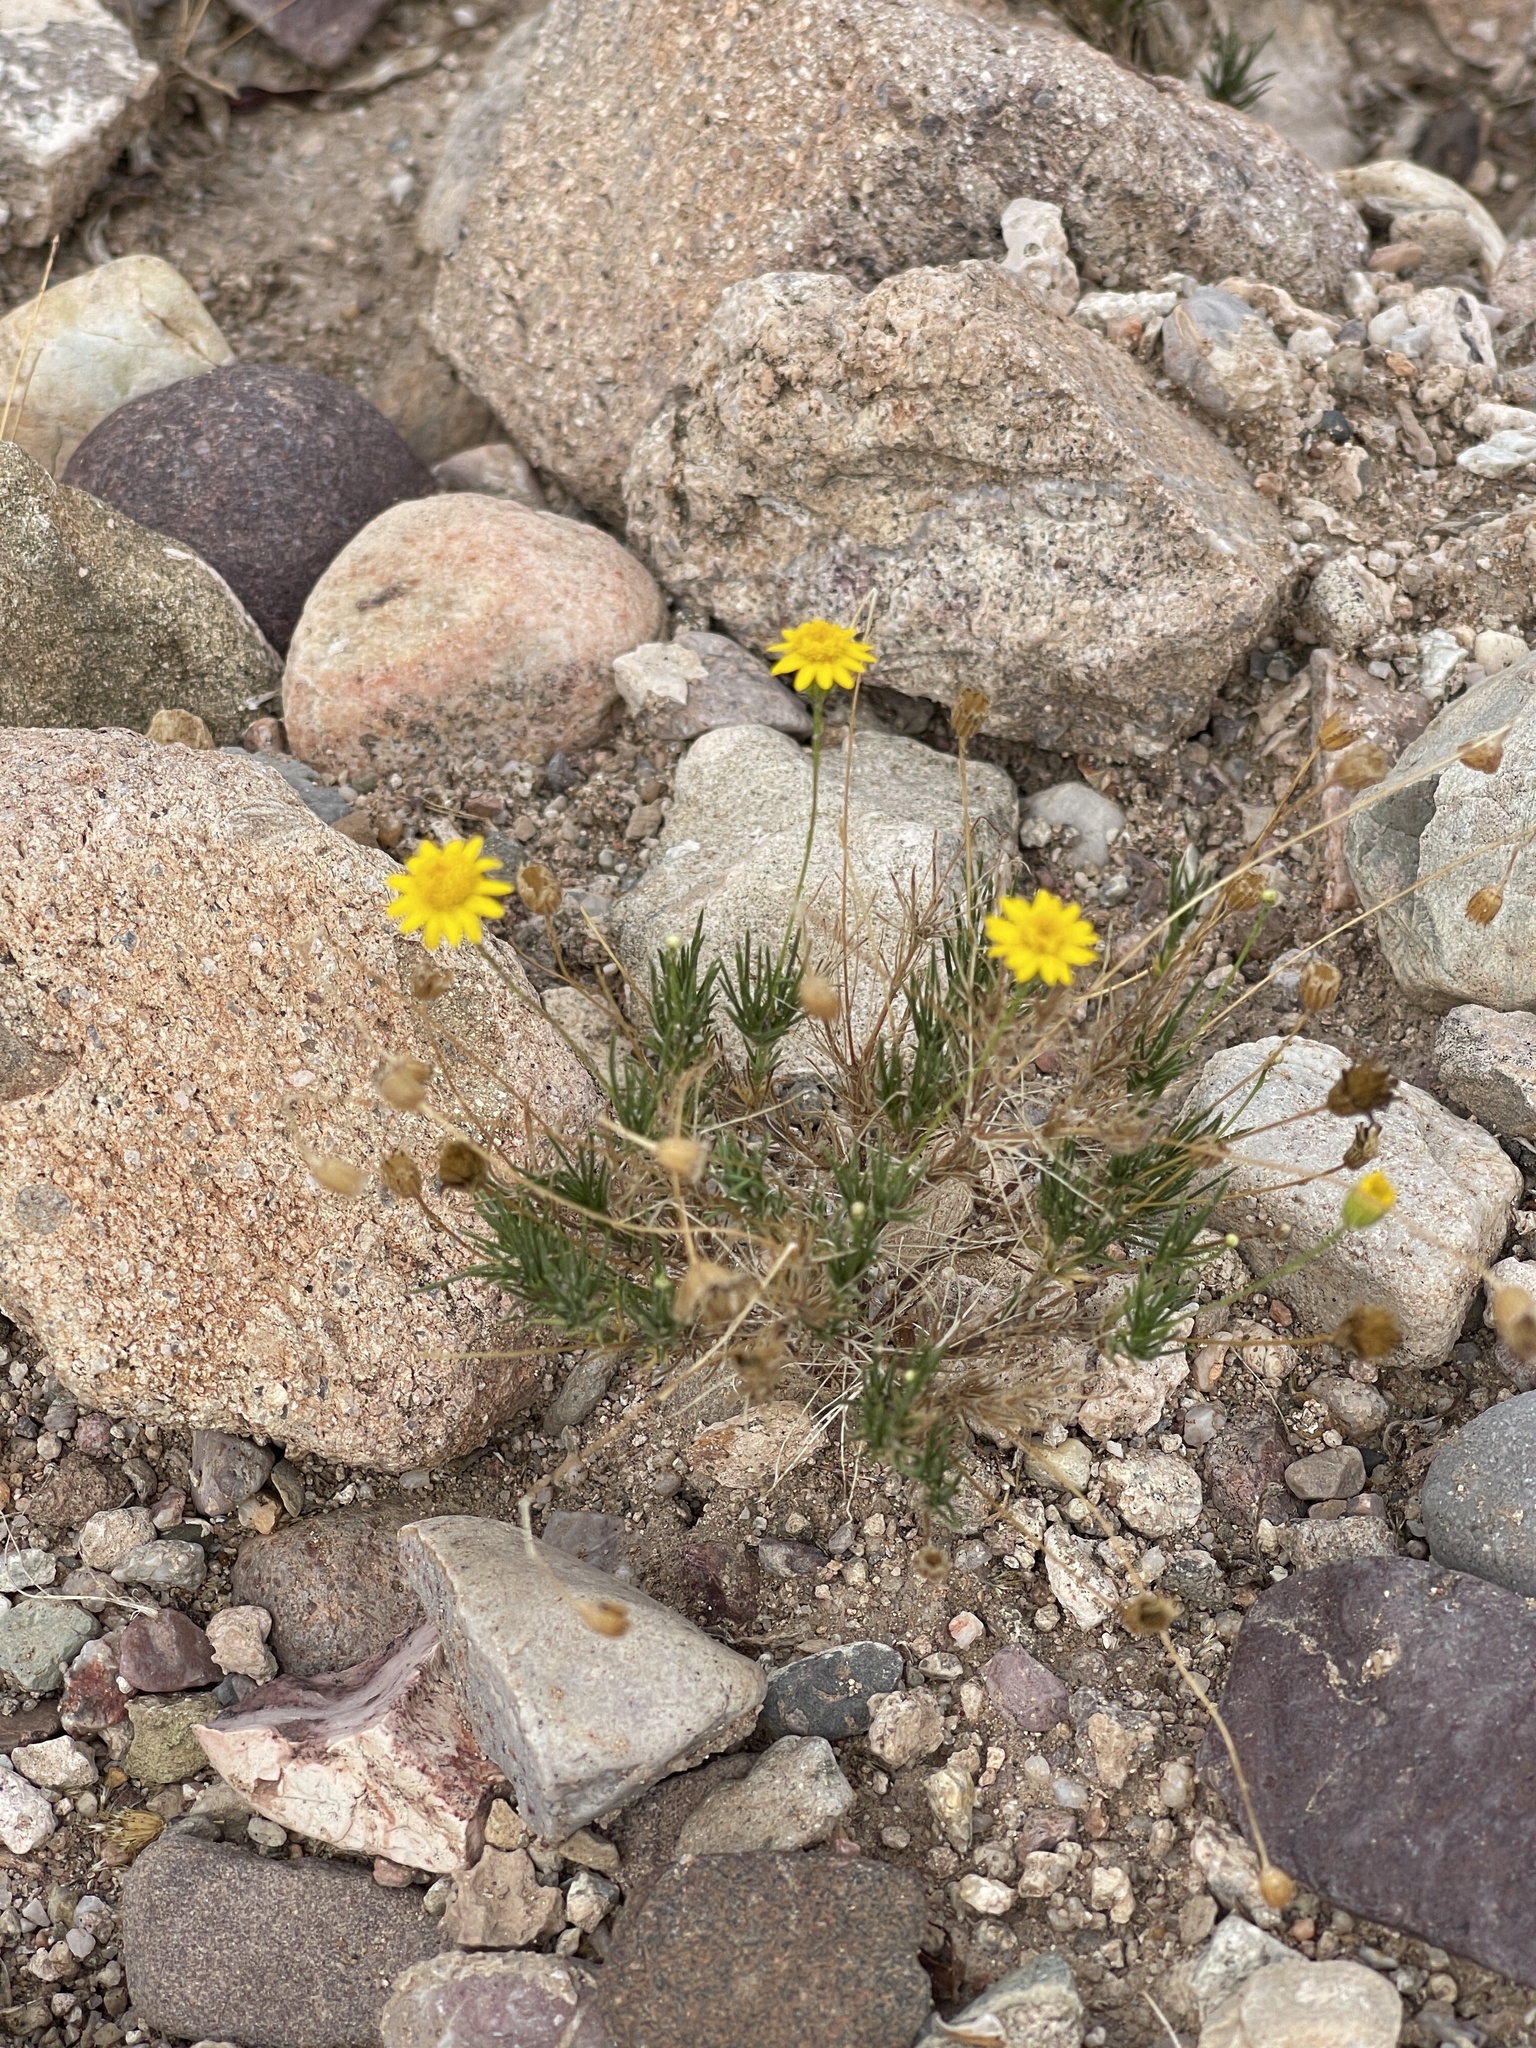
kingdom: Plantae
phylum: Tracheophyta
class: Magnoliopsida
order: Asterales
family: Asteraceae
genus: Thymophylla
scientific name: Thymophylla pentachaeta
